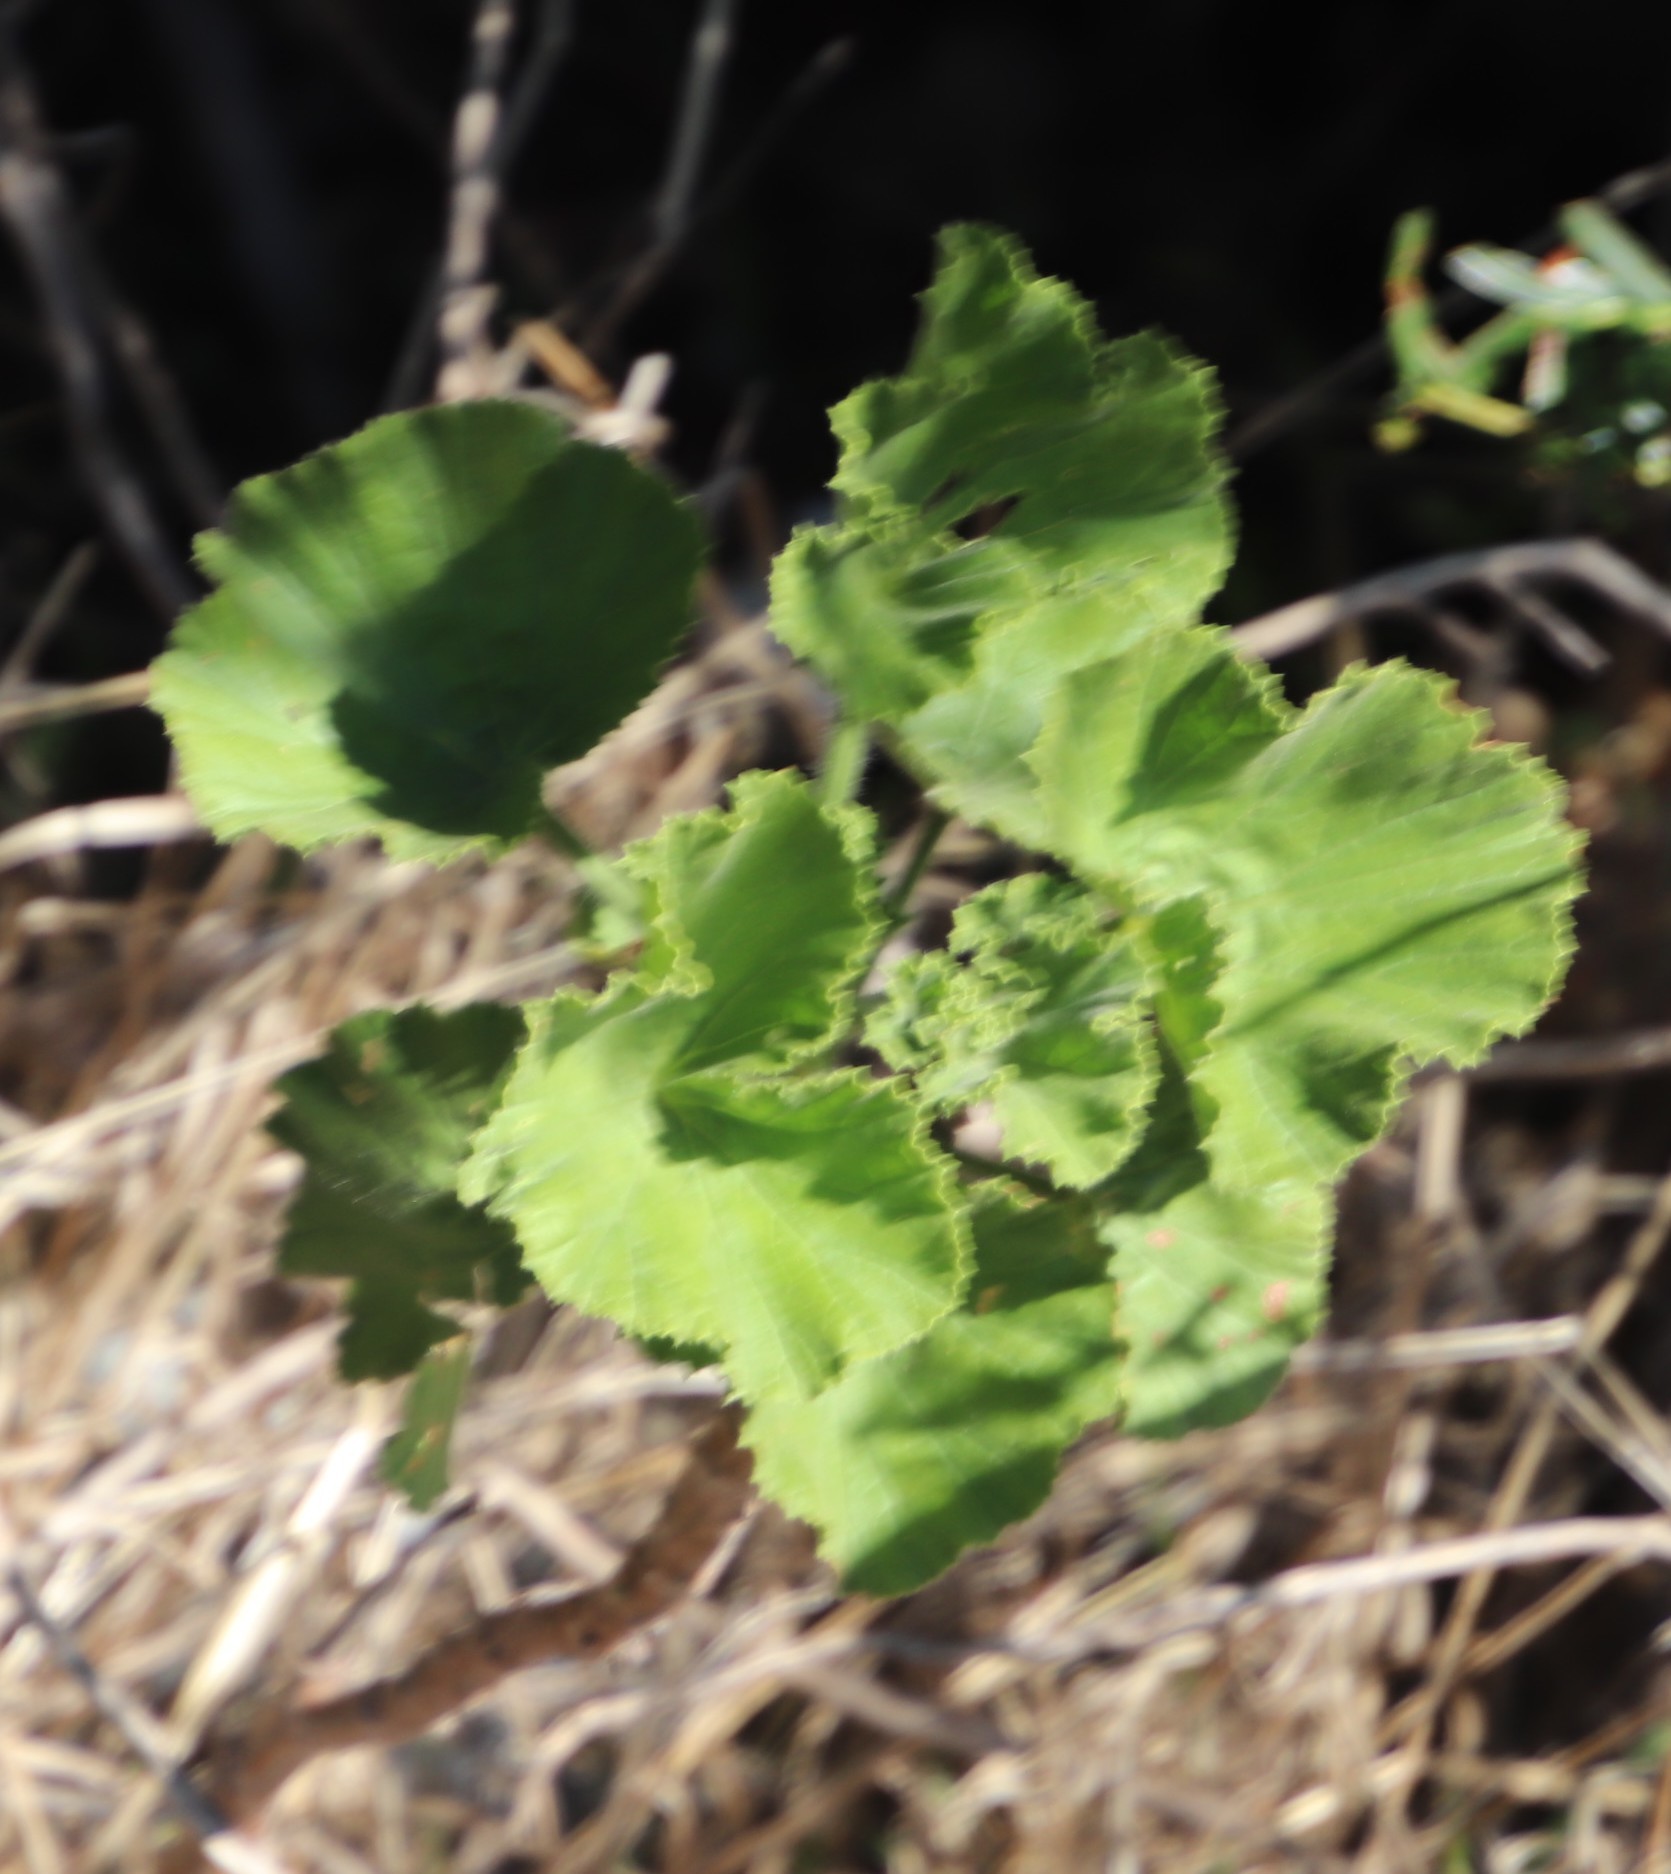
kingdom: Plantae
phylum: Tracheophyta
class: Magnoliopsida
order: Geraniales
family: Geraniaceae
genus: Pelargonium
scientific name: Pelargonium cucullatum
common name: Tree pelargonium
